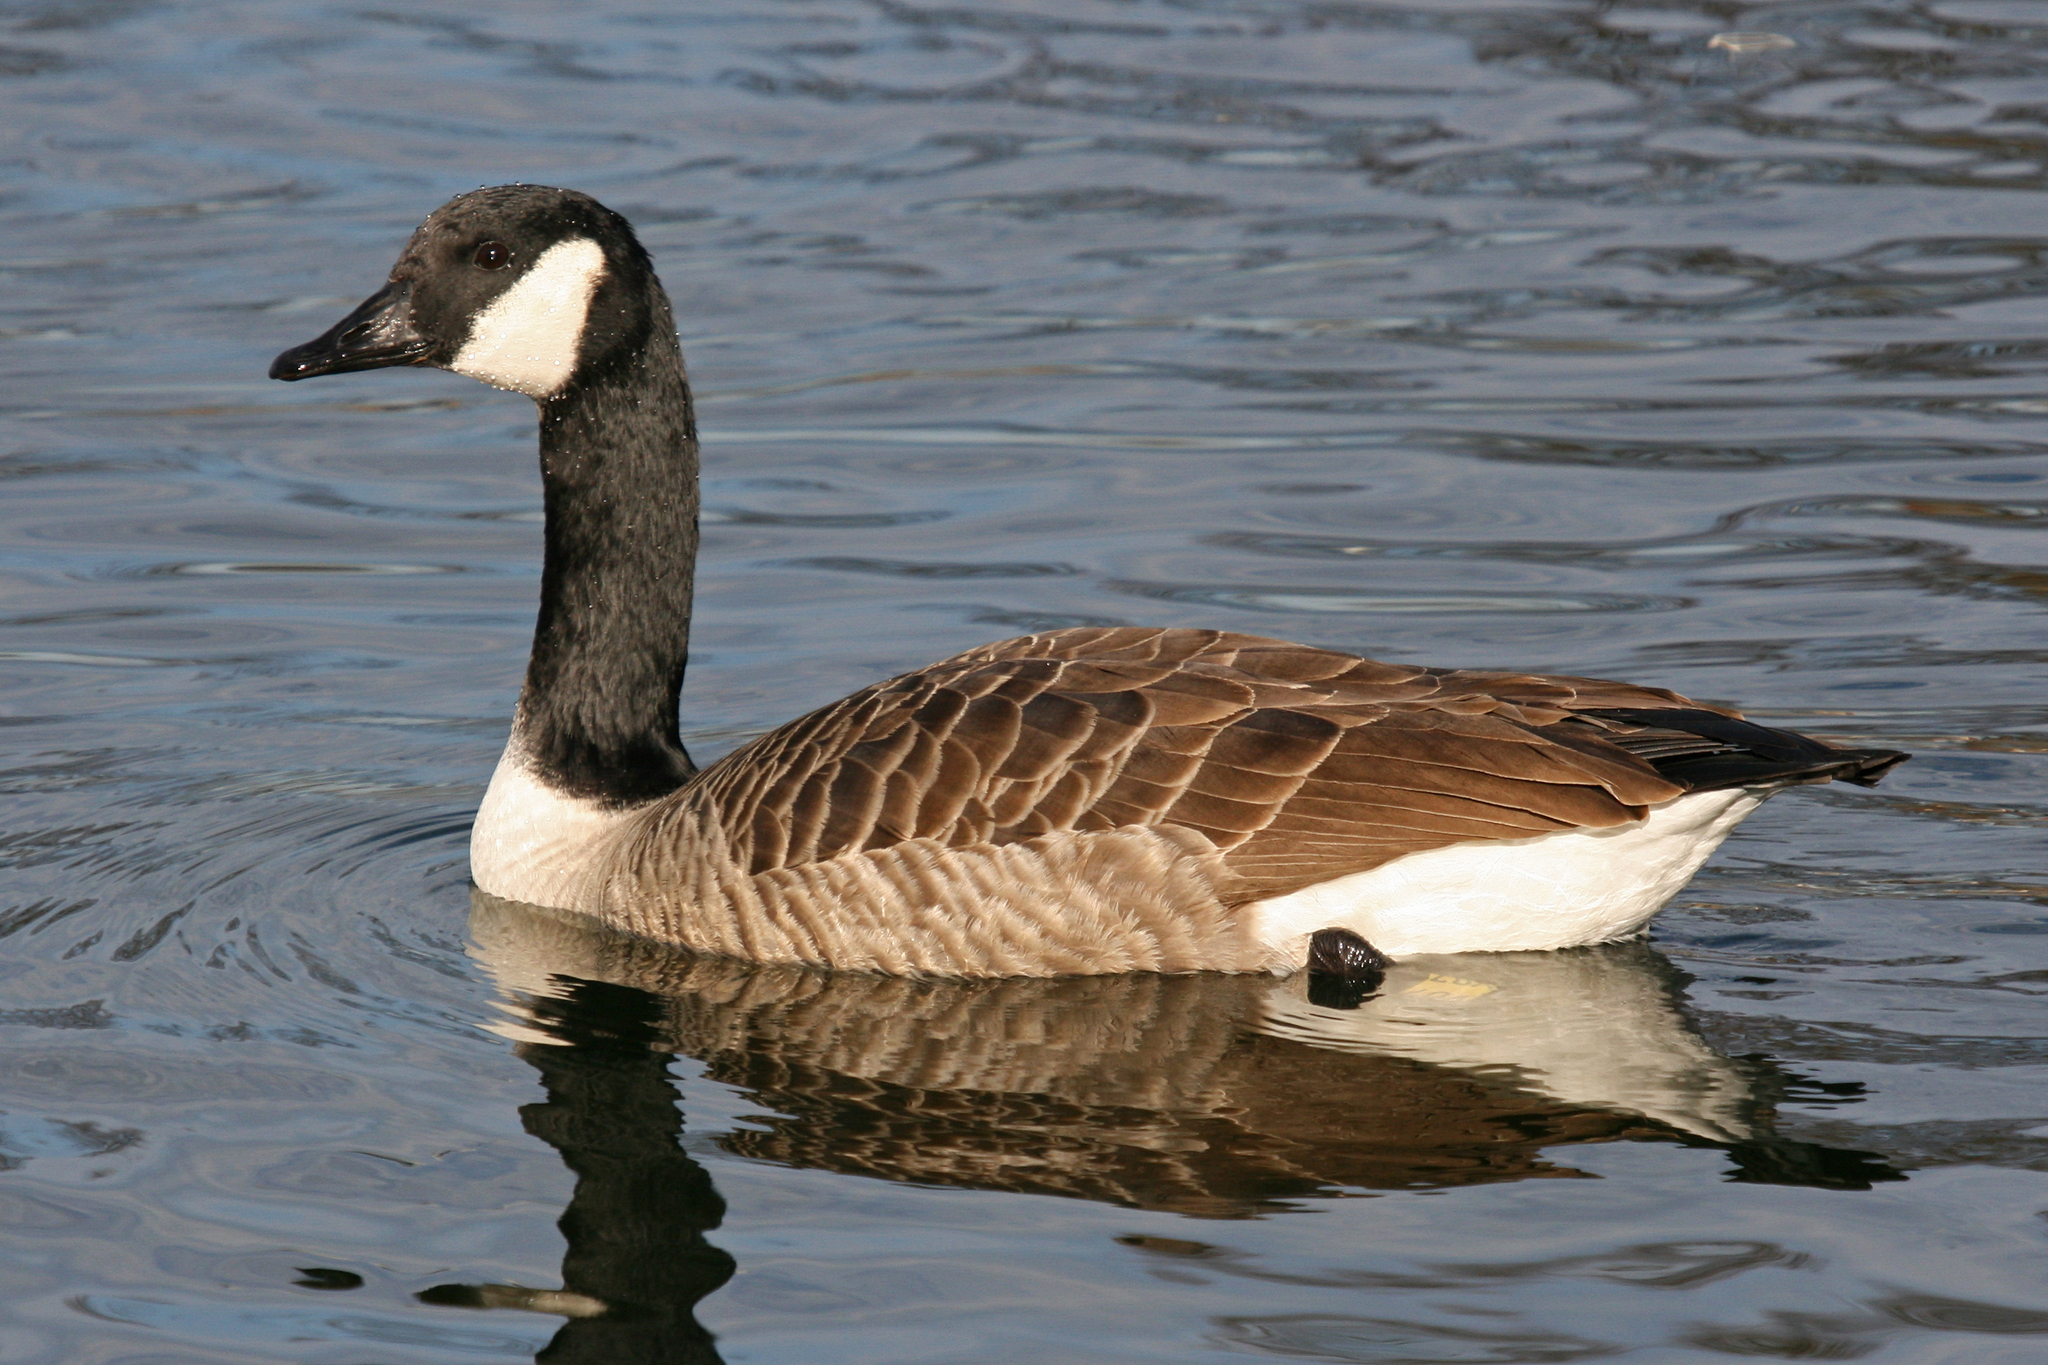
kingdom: Animalia
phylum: Chordata
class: Aves
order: Anseriformes
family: Anatidae
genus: Branta
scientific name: Branta canadensis
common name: Canada goose
